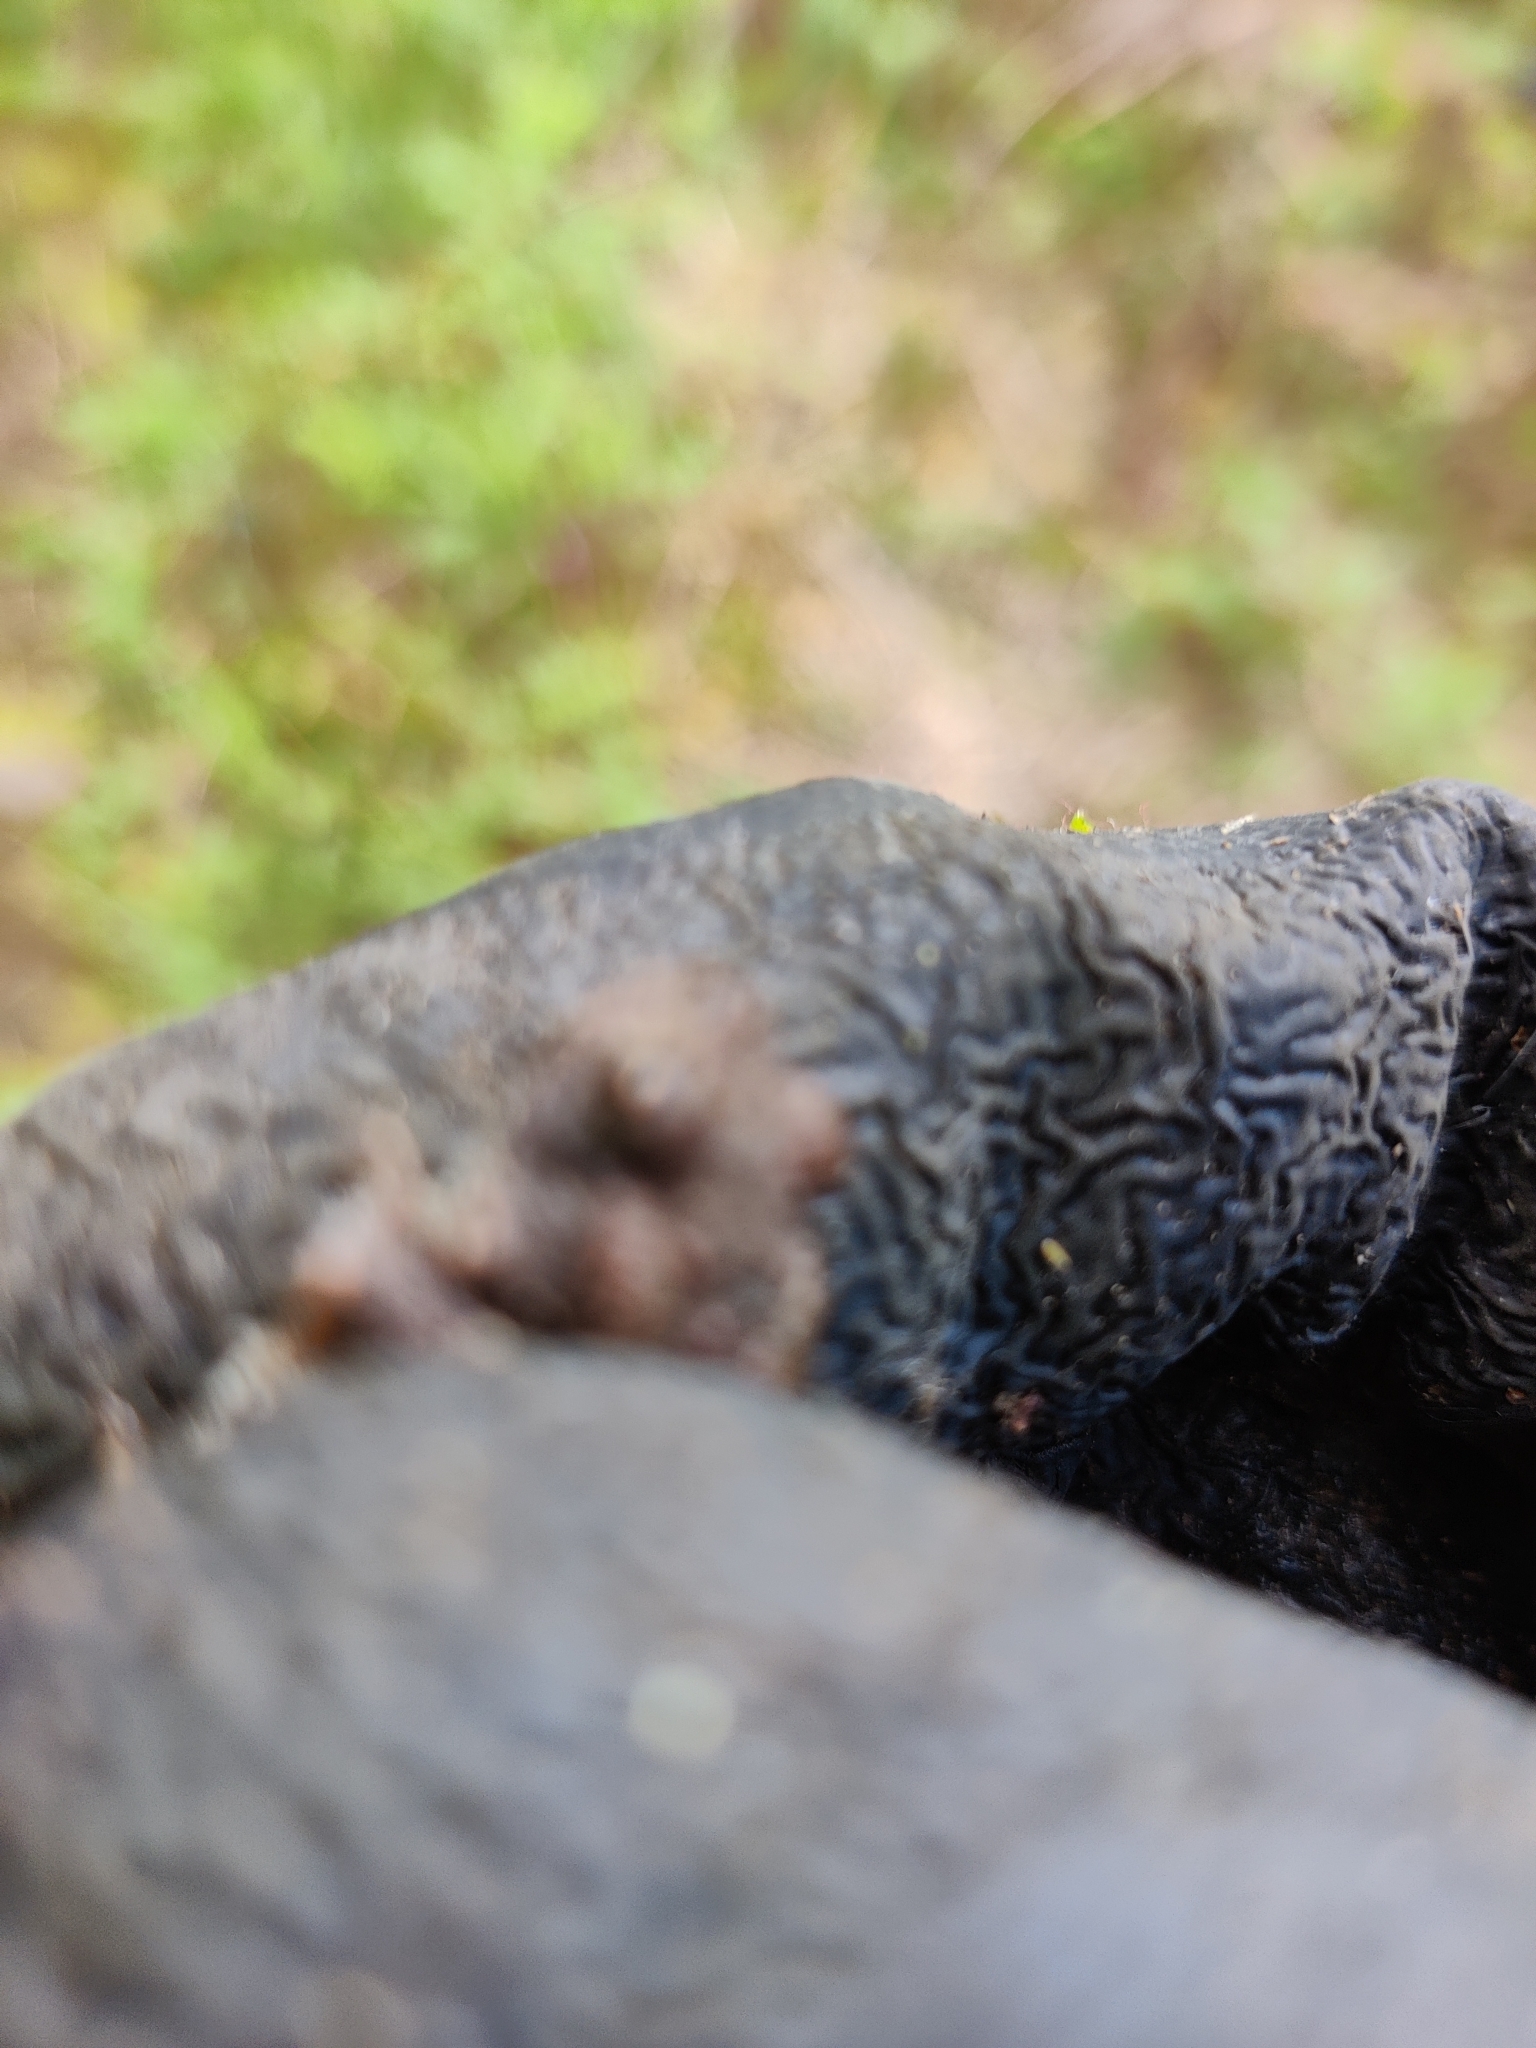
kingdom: Animalia
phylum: Chordata
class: Amphibia
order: Anura
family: Bufonidae
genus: Bufo
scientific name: Bufo bufo
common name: Common toad
